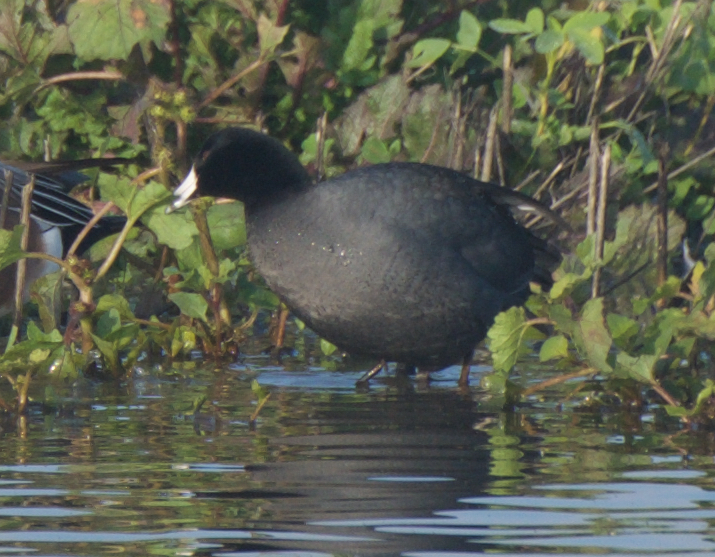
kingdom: Animalia
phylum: Chordata
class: Aves
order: Gruiformes
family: Rallidae
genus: Fulica
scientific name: Fulica americana
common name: American coot
